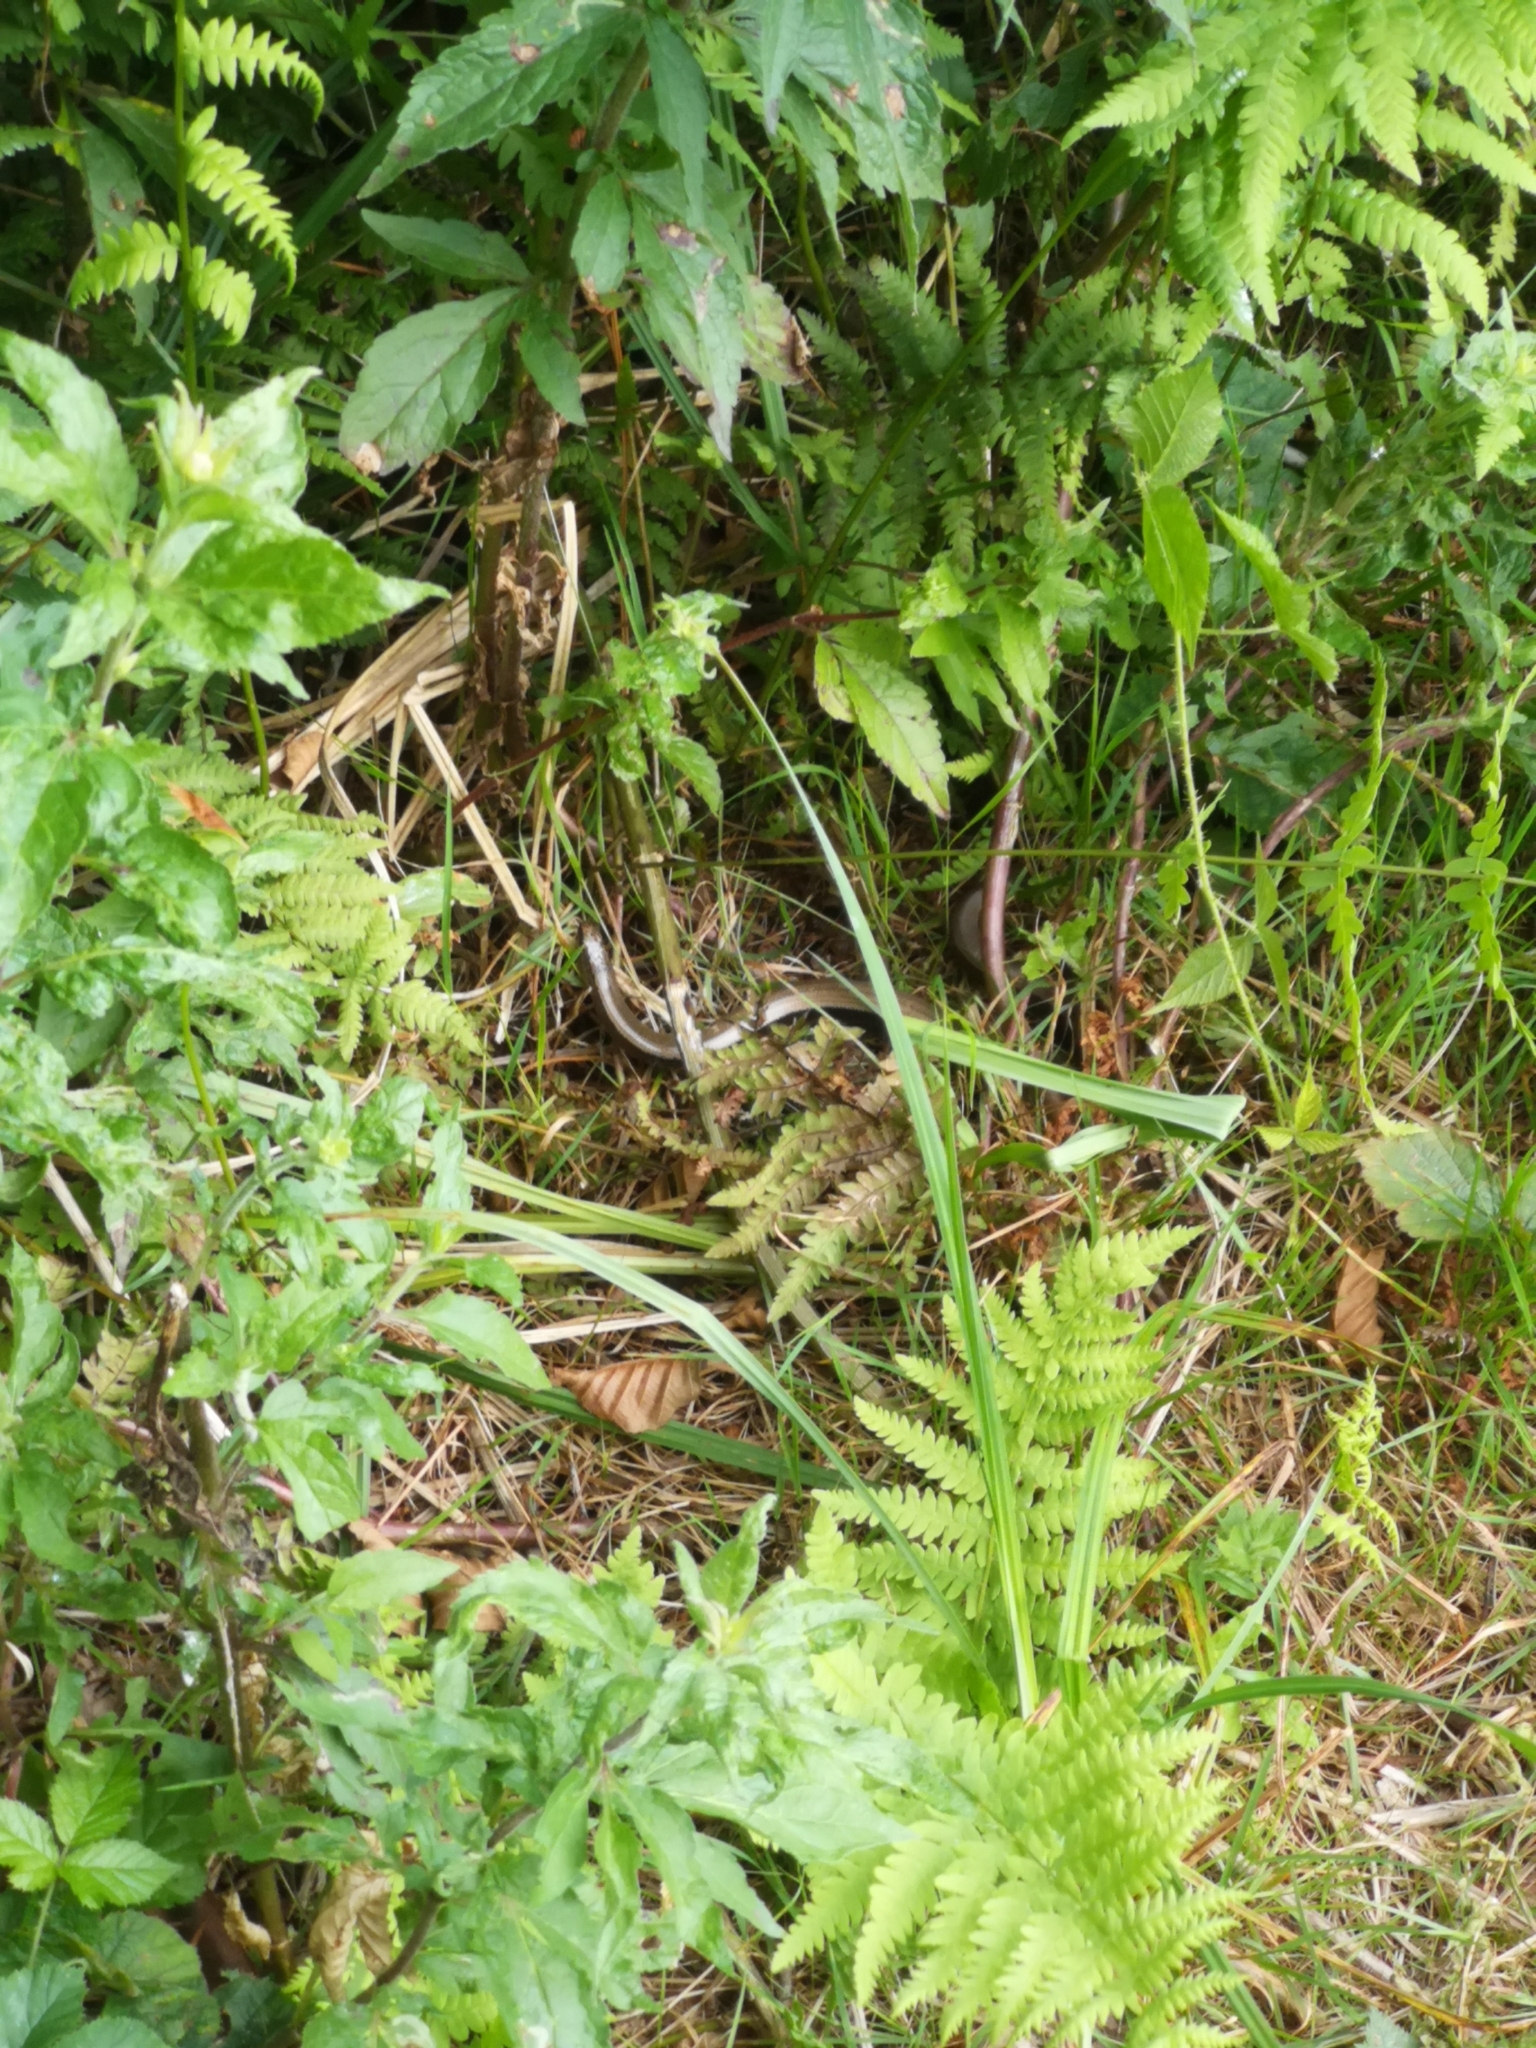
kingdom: Animalia
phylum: Chordata
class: Squamata
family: Anguidae
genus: Anguis
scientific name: Anguis fragilis
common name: Slow worm
